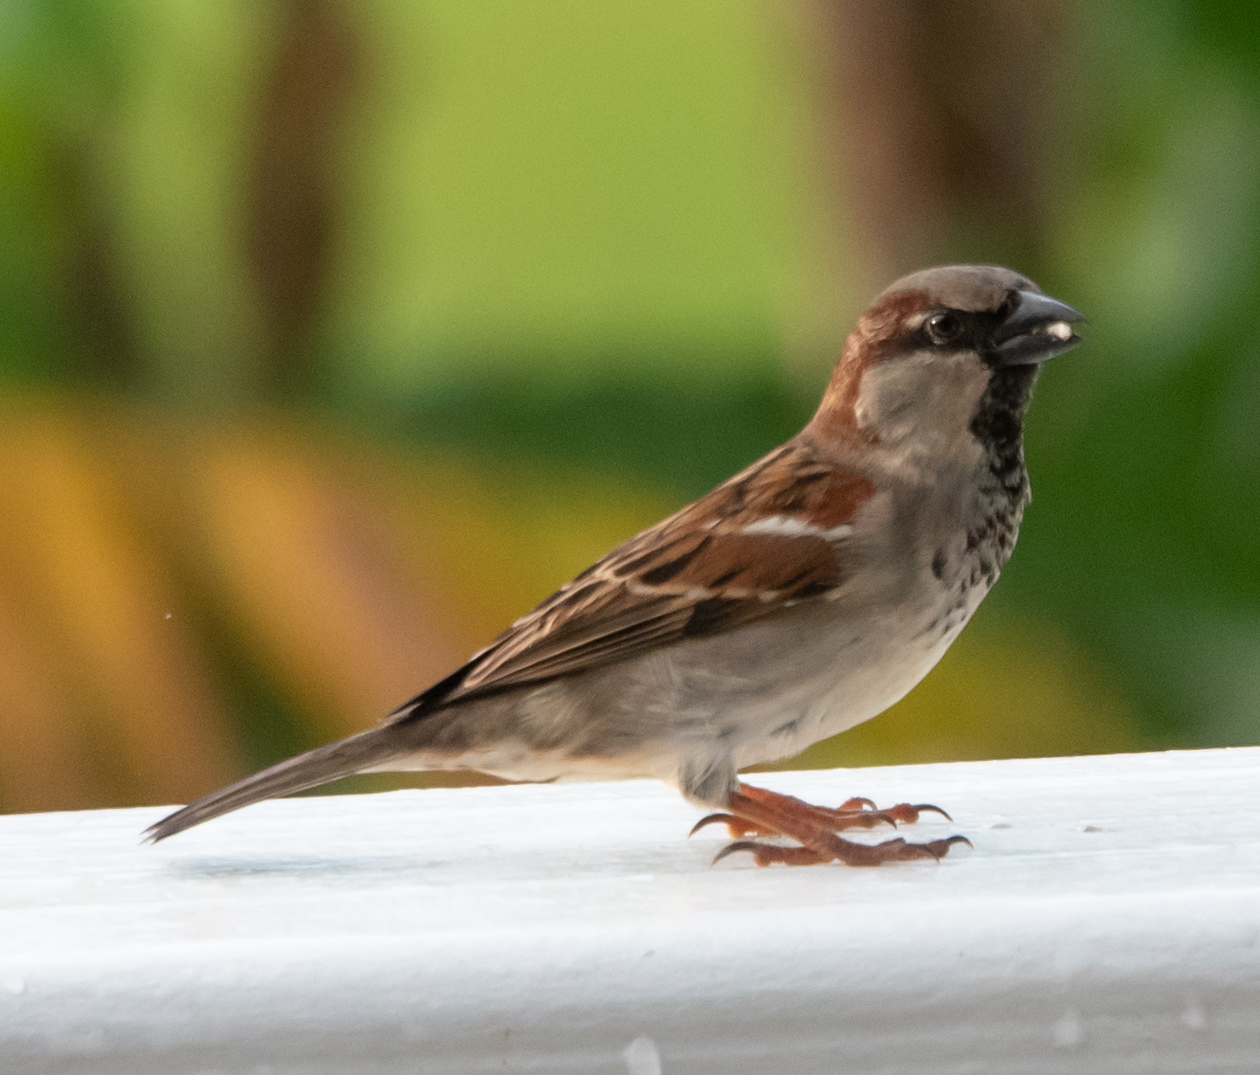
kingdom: Animalia
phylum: Chordata
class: Aves
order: Passeriformes
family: Passeridae
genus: Passer
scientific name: Passer domesticus
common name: House sparrow
